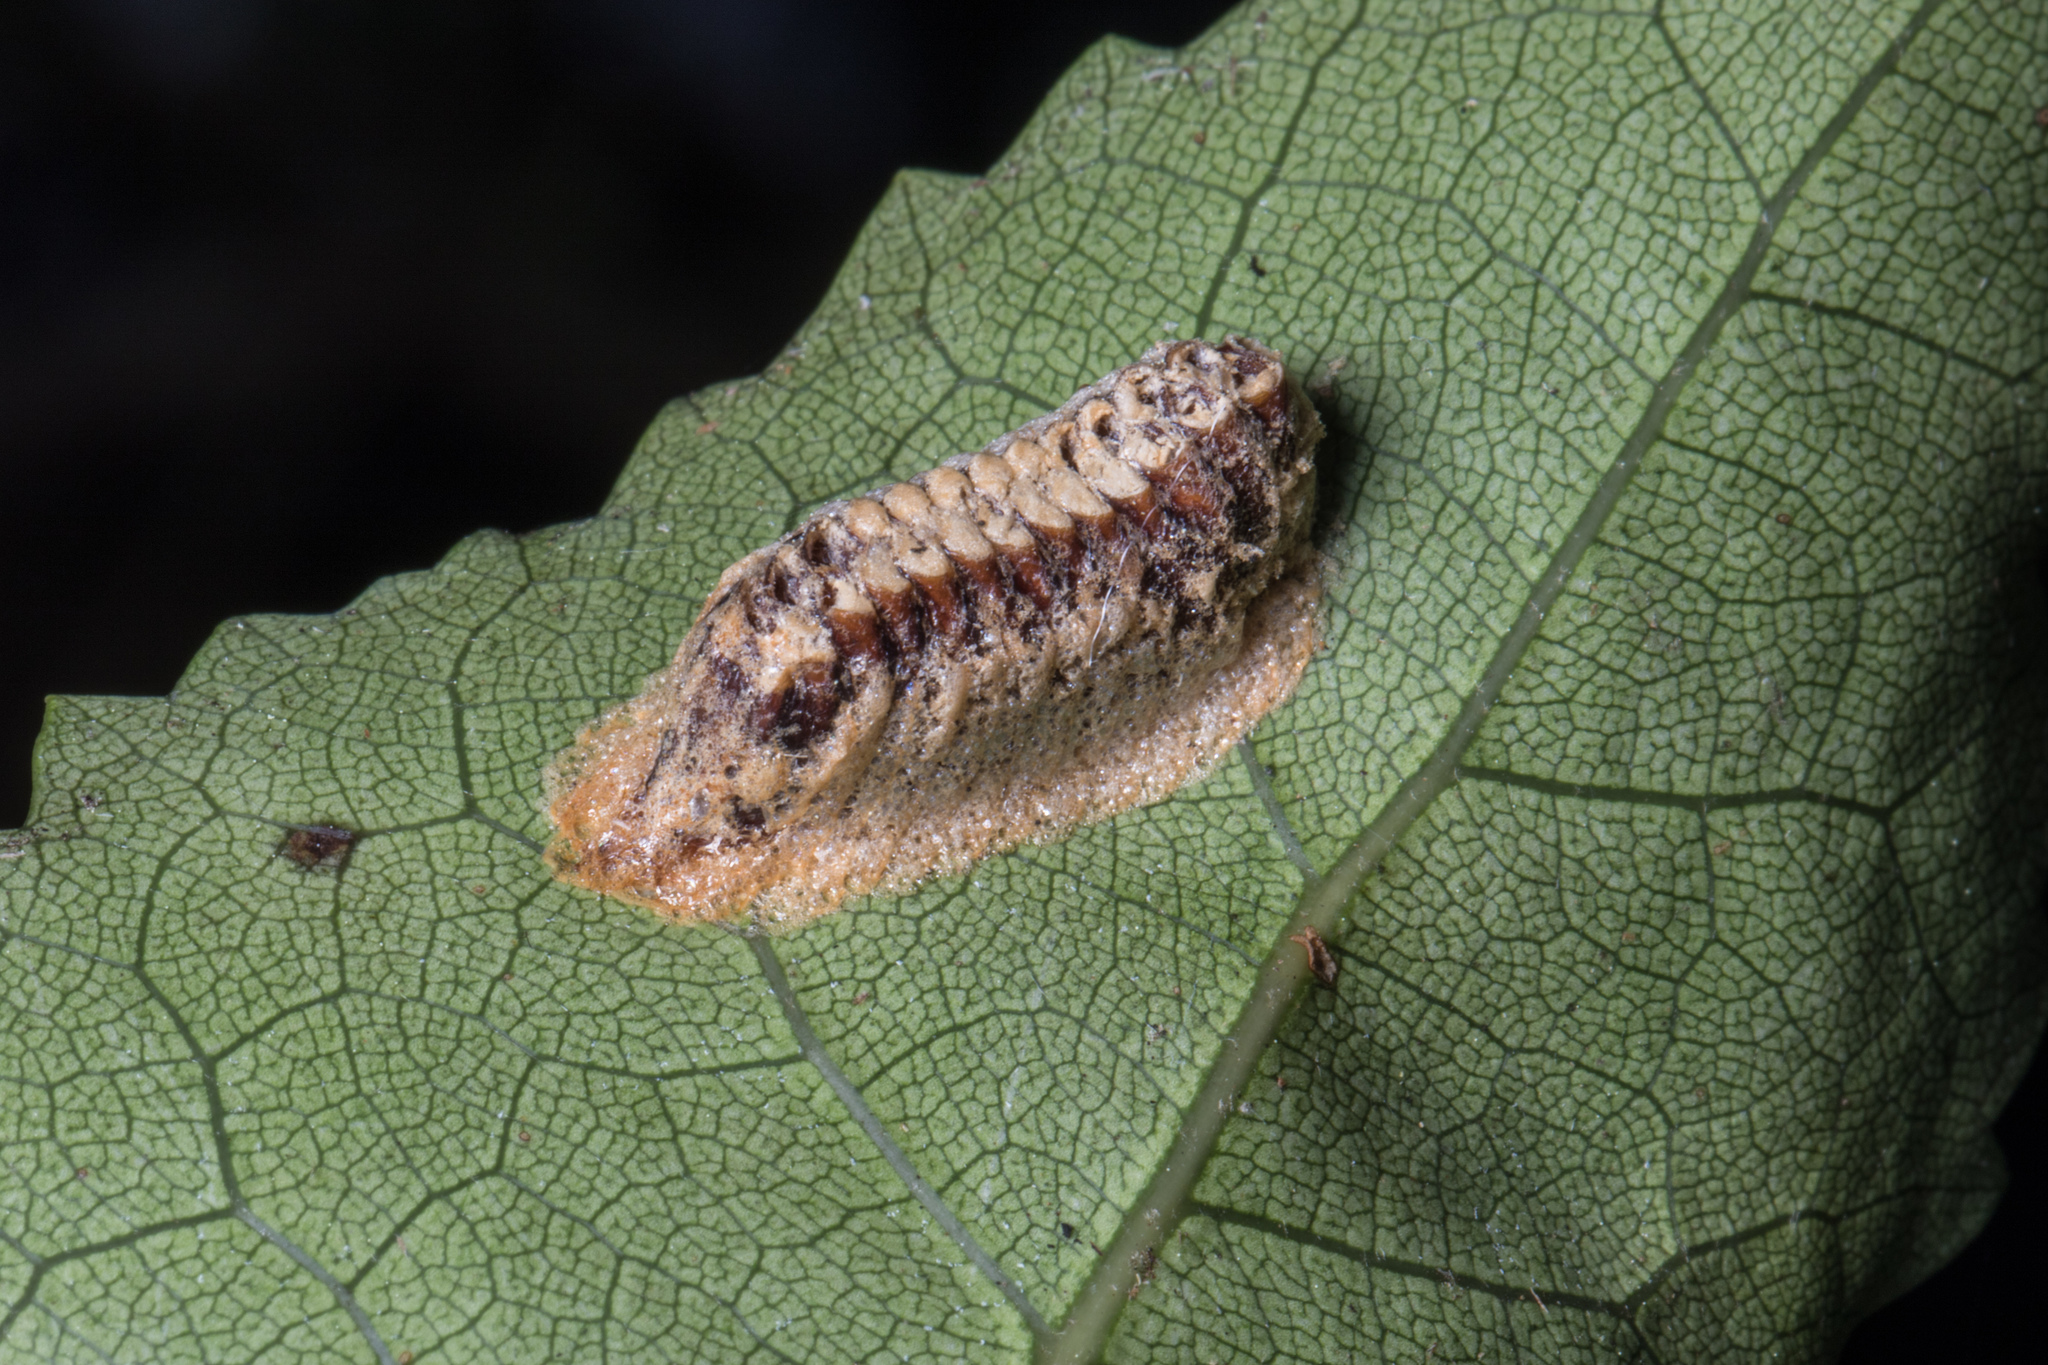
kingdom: Animalia
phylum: Arthropoda
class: Insecta
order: Mantodea
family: Mantidae
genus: Orthodera
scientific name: Orthodera novaezealandiae
